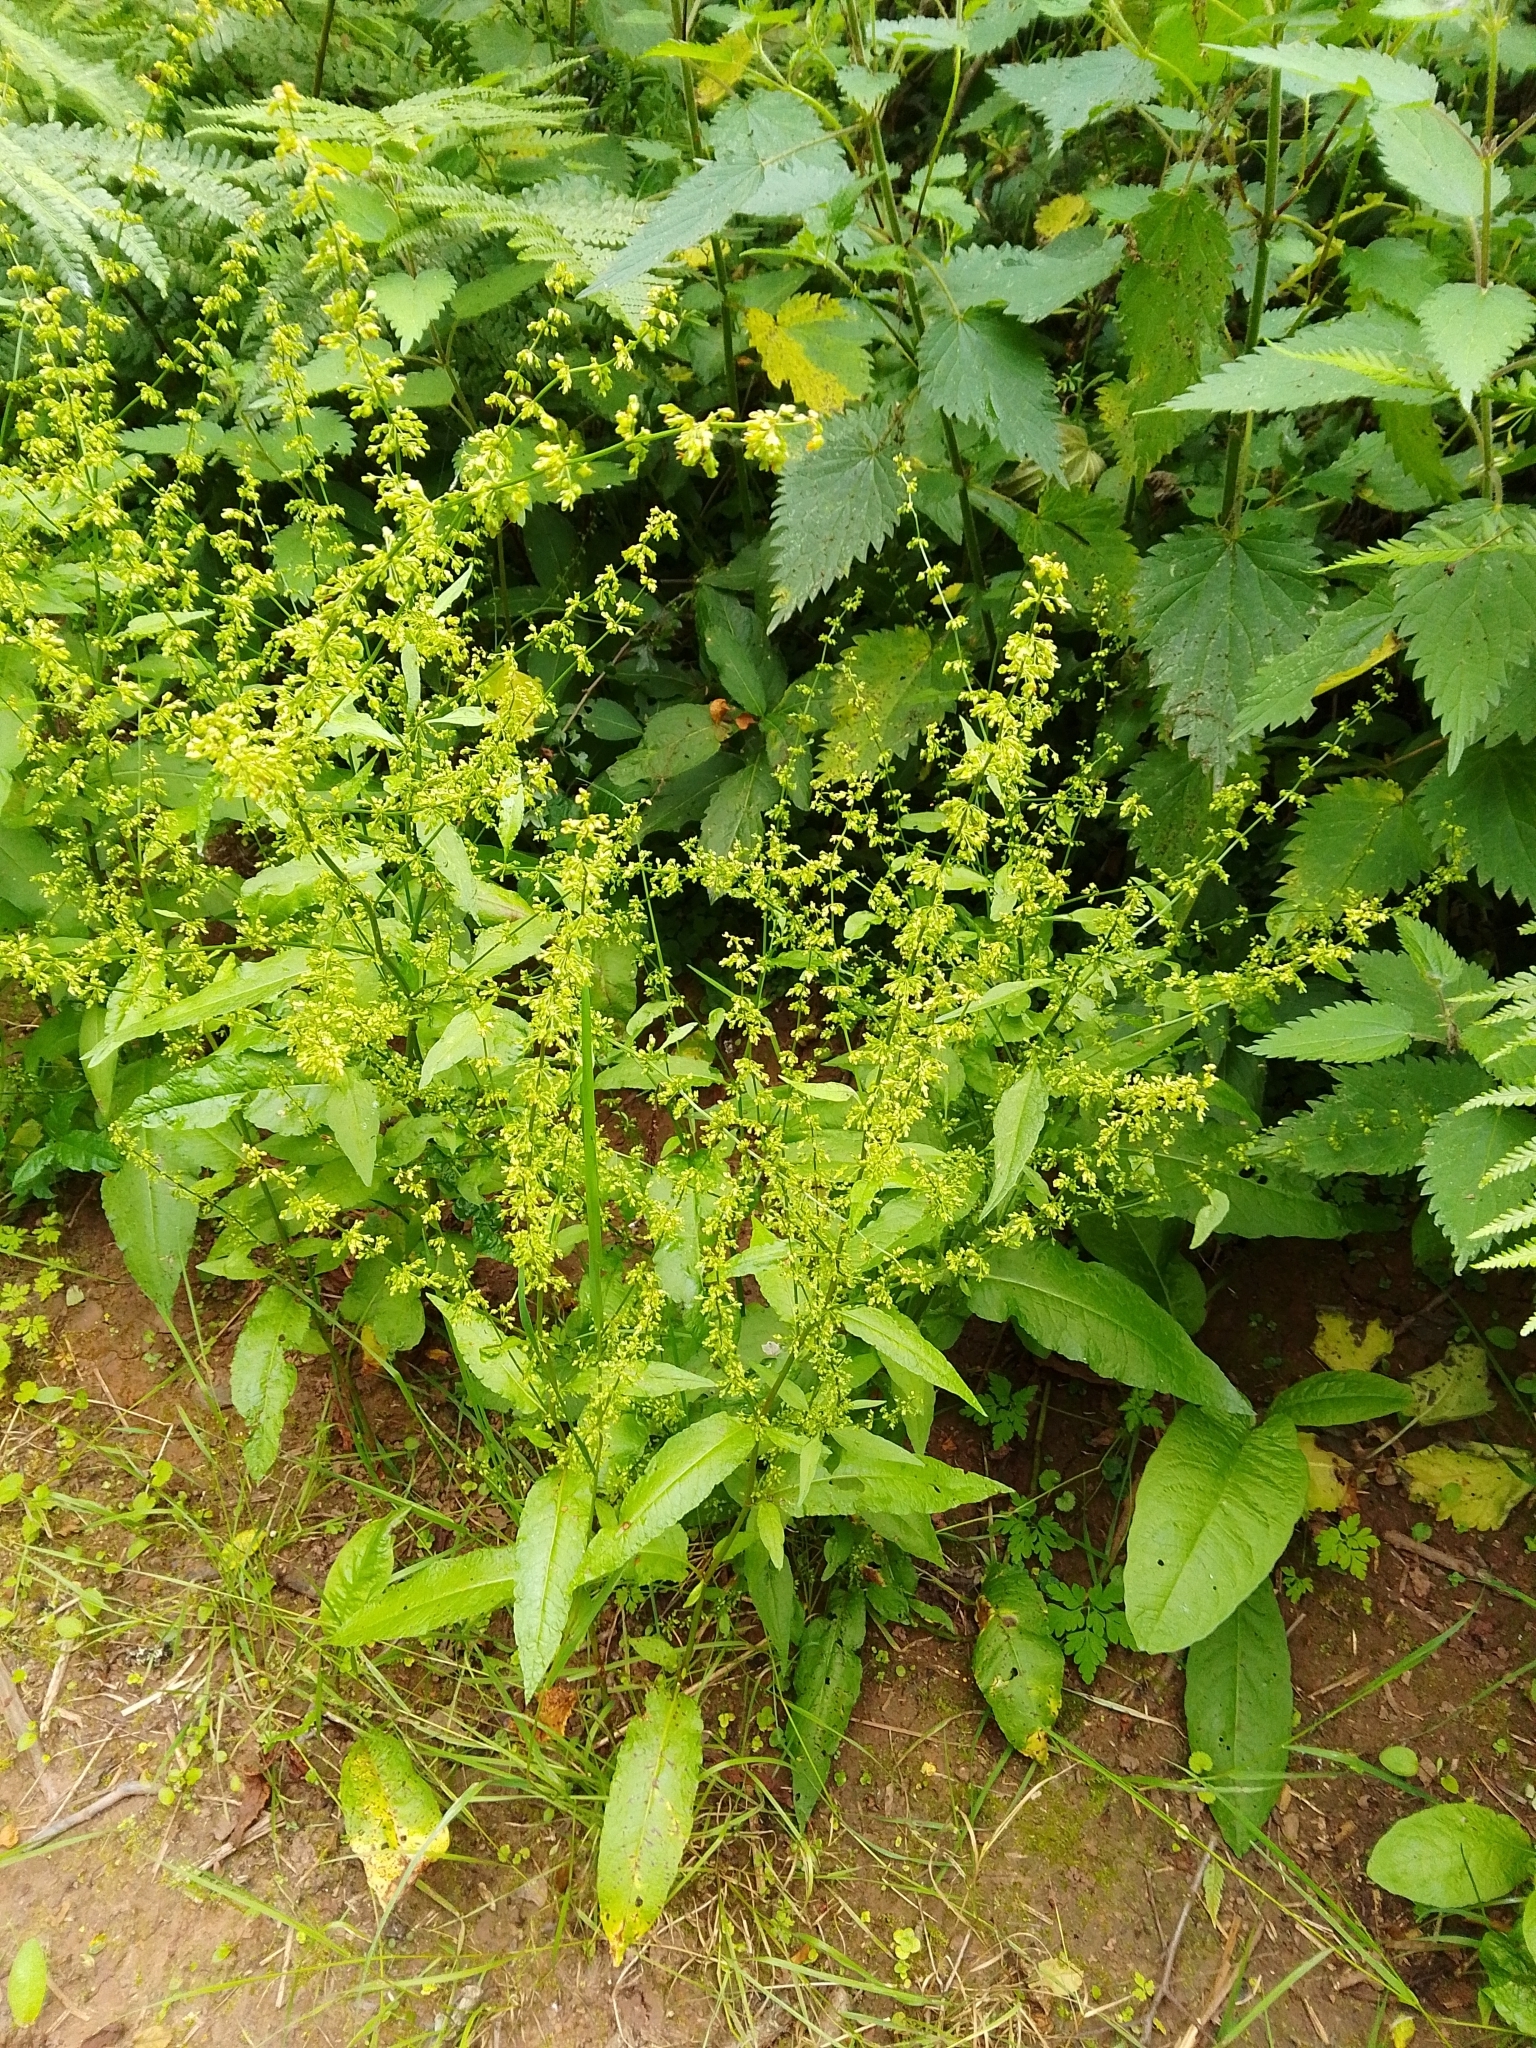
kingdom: Plantae
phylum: Tracheophyta
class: Magnoliopsida
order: Caryophyllales
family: Polygonaceae
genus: Rumex
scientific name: Rumex sanguineus
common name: Wood dock
